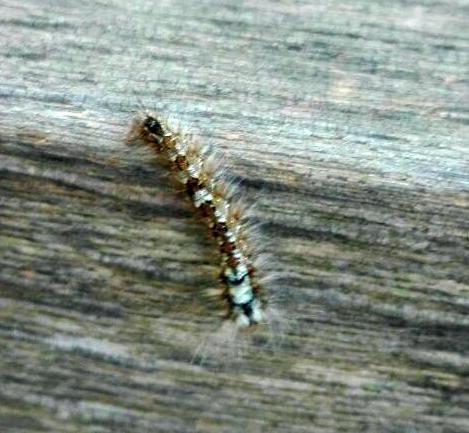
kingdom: Animalia
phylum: Arthropoda
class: Insecta
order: Lepidoptera
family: Lasiocampidae
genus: Dendrolimus
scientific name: Dendrolimus pini
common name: Pine-tree lappet
